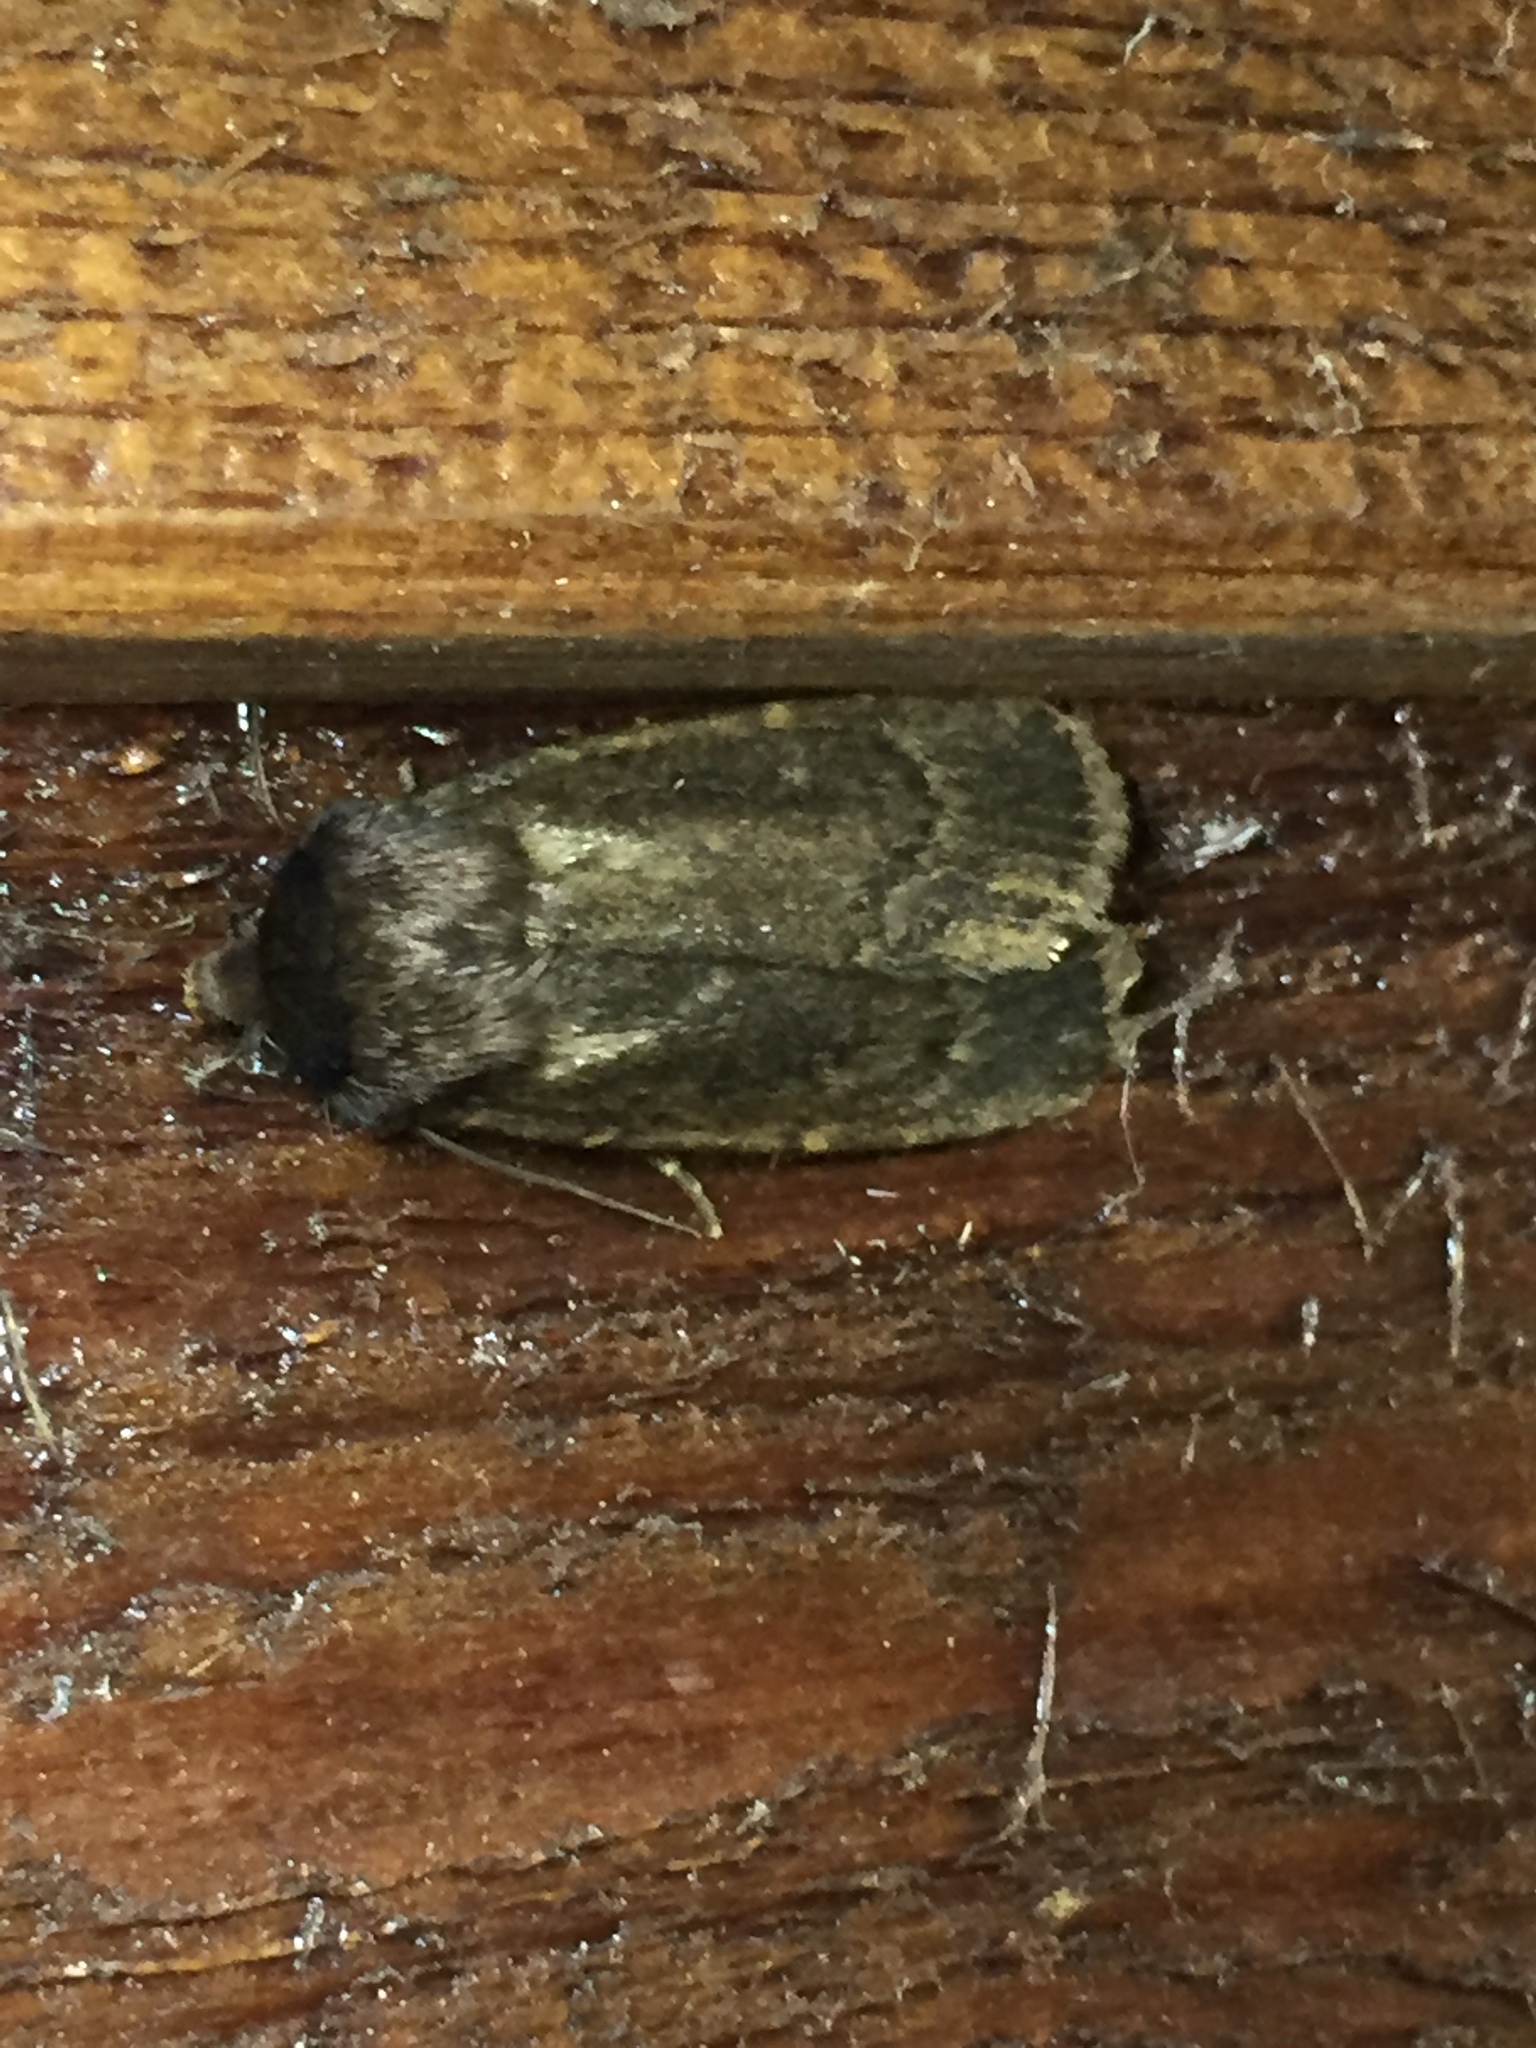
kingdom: Animalia
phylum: Arthropoda
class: Insecta
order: Lepidoptera
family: Noctuidae
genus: Bityla
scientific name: Bityla defigurata
